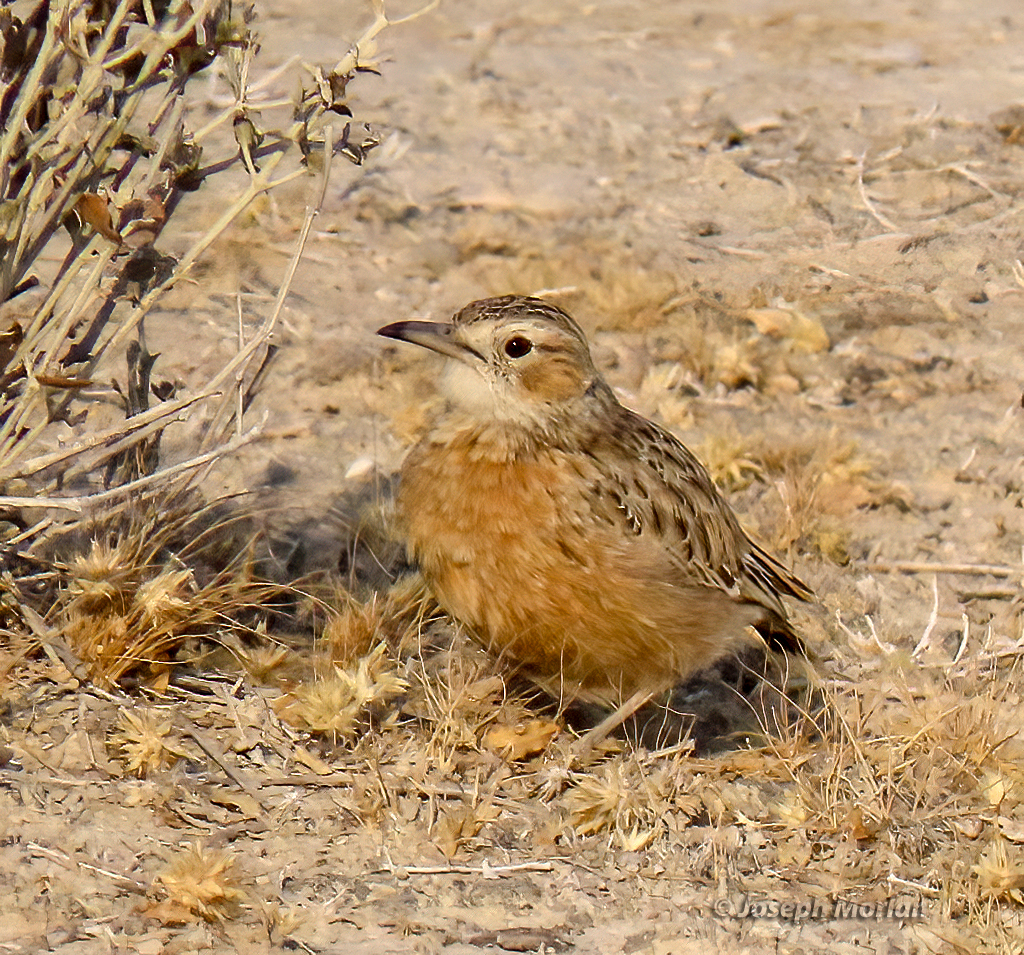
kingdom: Animalia
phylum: Chordata
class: Aves
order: Passeriformes
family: Alaudidae
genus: Chersomanes
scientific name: Chersomanes albofasciata
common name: Spike-heeled lark
